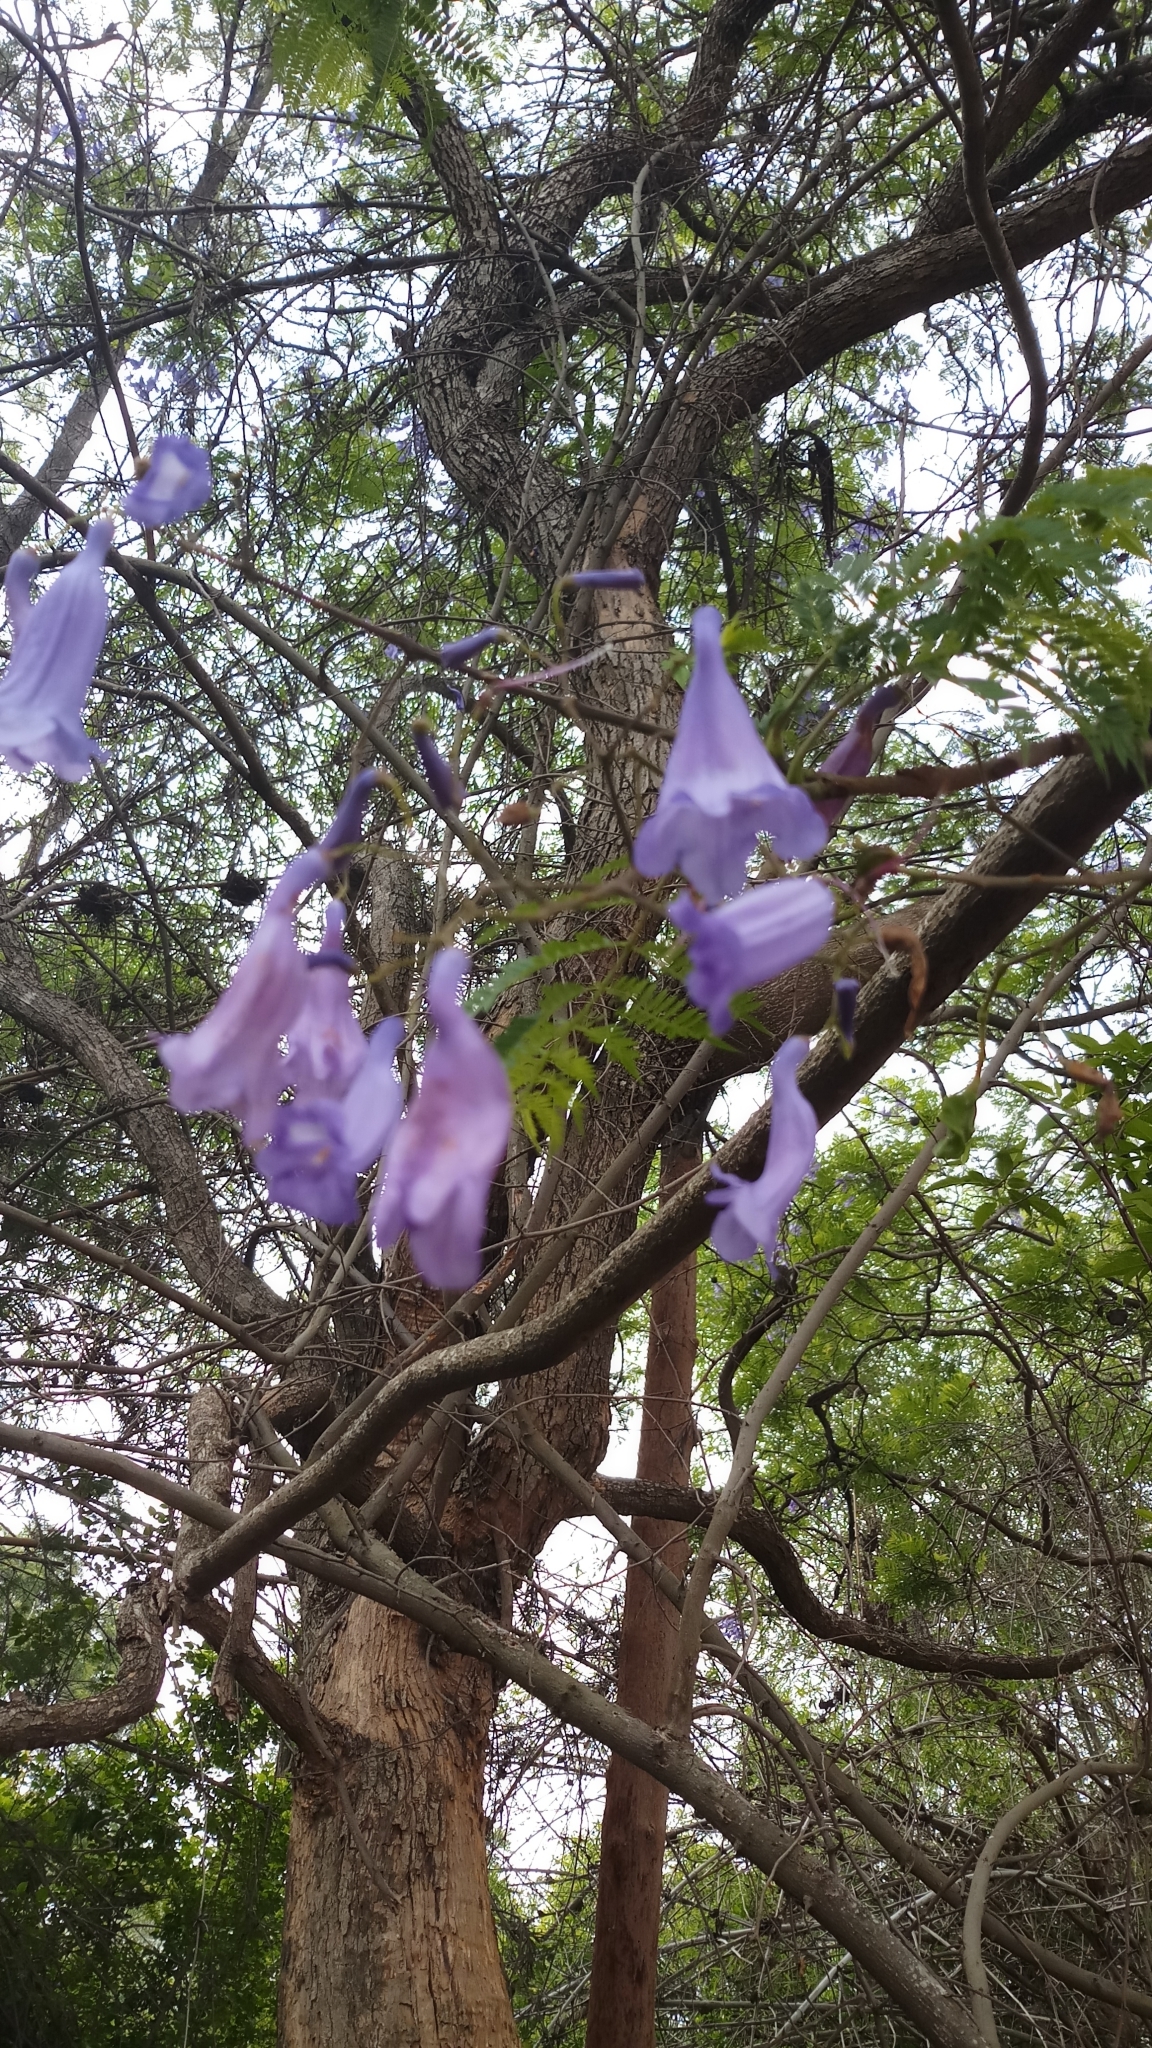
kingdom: Plantae
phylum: Tracheophyta
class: Magnoliopsida
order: Lamiales
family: Bignoniaceae
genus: Jacaranda
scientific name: Jacaranda mimosifolia
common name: Black poui
